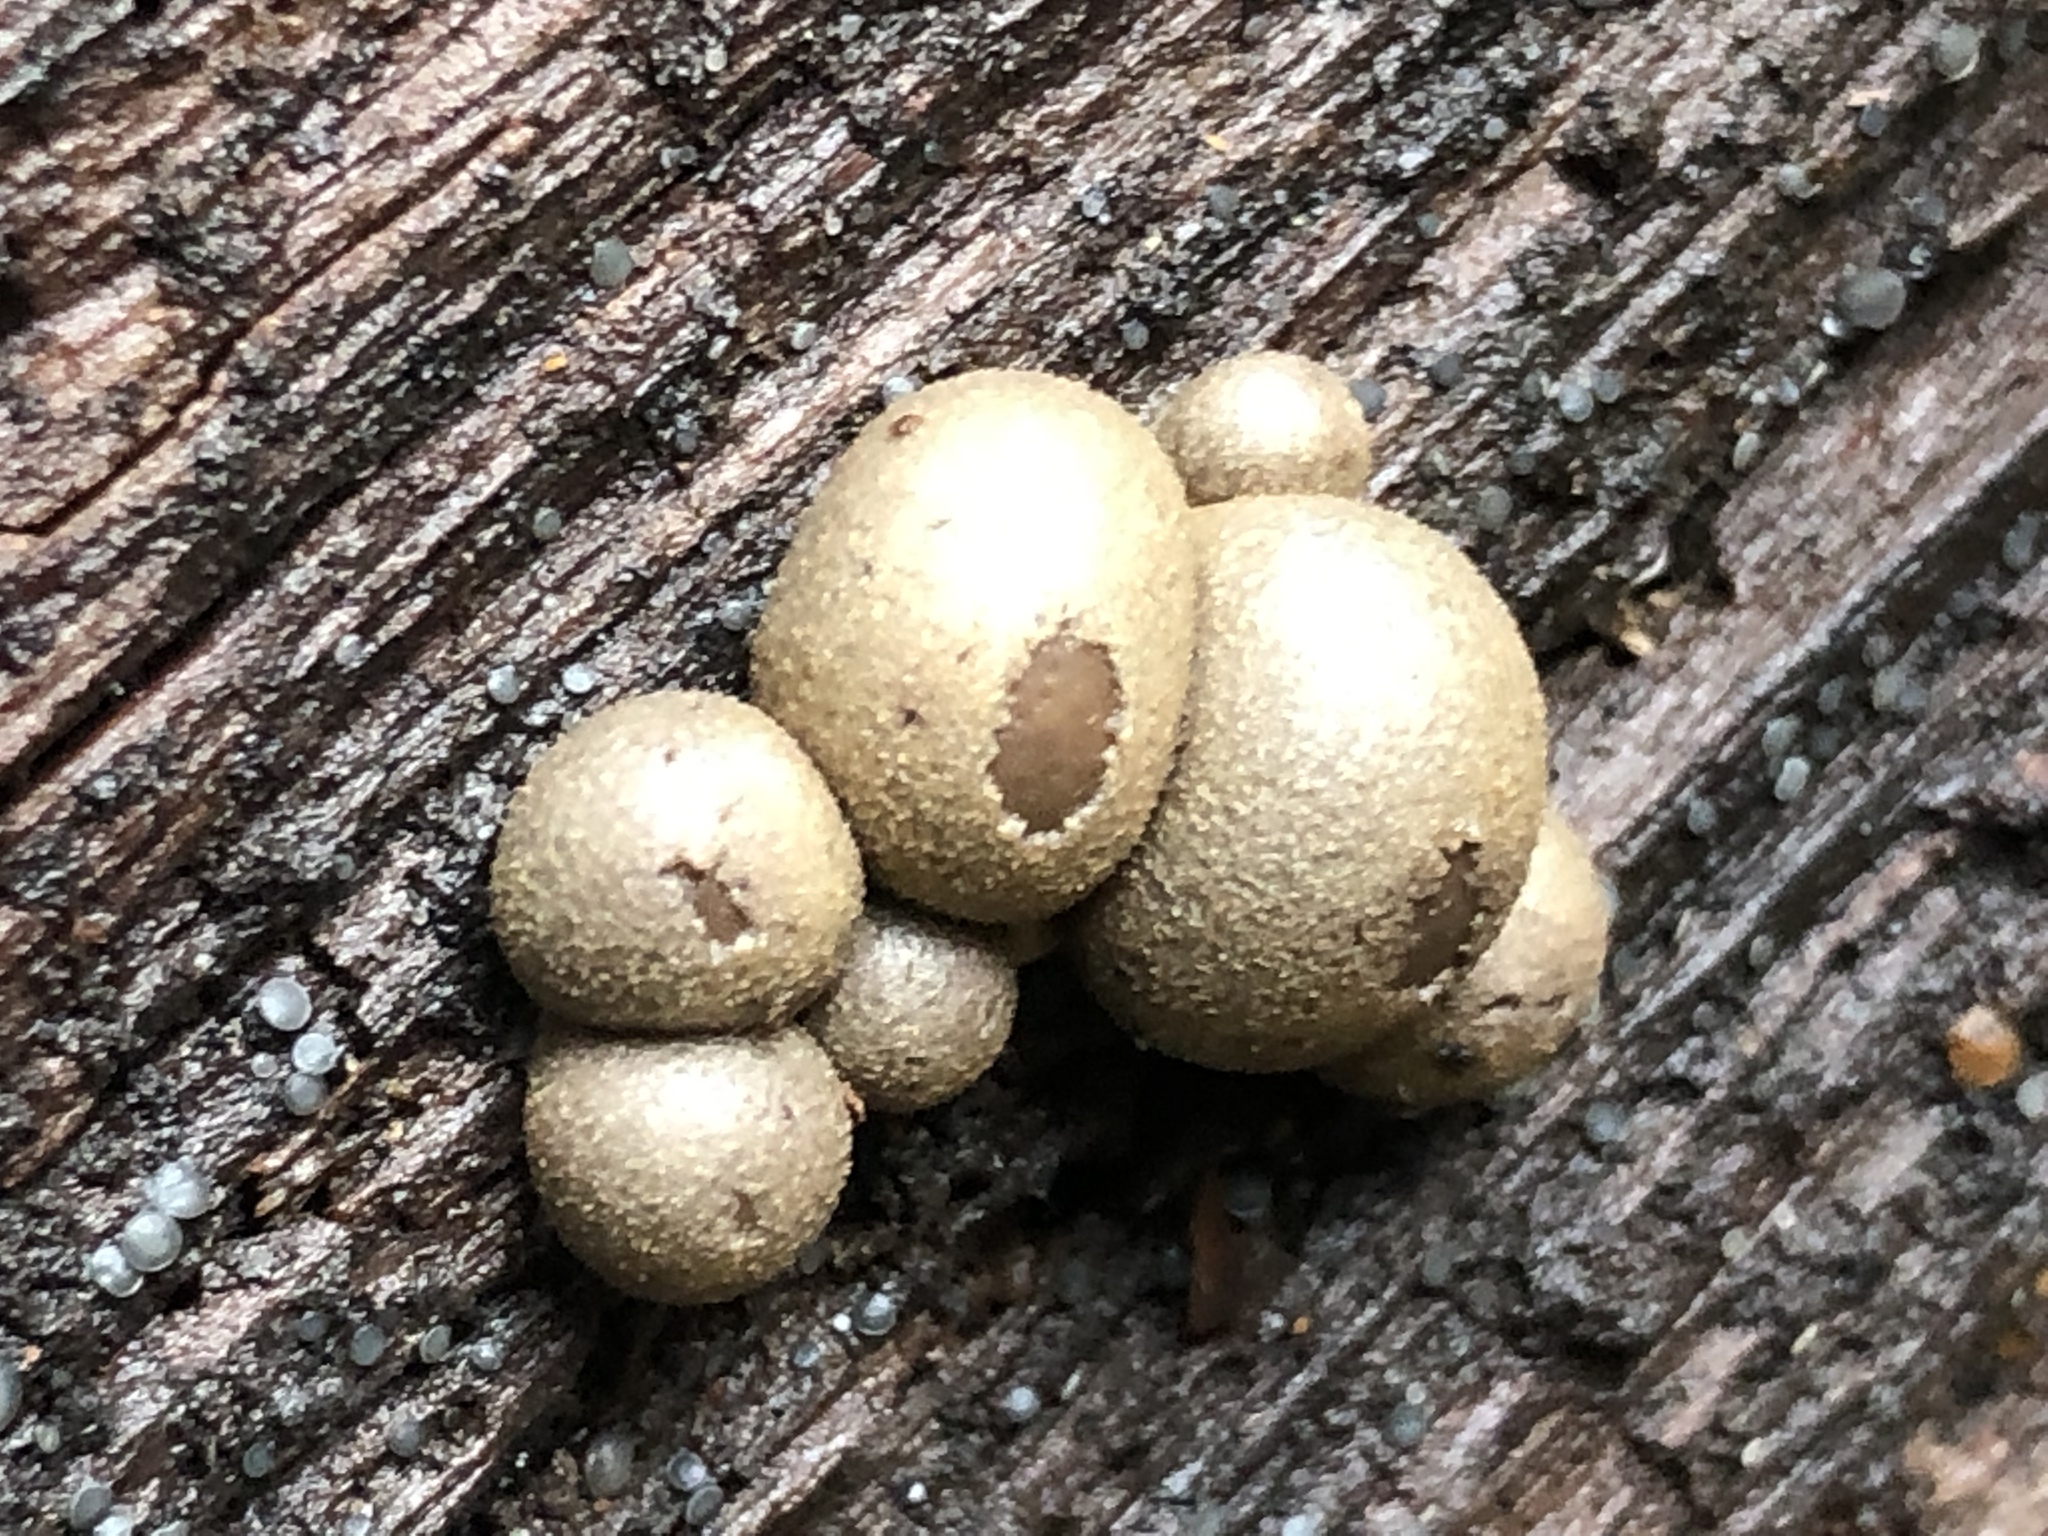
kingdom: Protozoa
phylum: Mycetozoa
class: Myxomycetes
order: Cribrariales
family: Tubiferaceae
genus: Lycogala
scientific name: Lycogala epidendrum
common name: Wolf's milk
